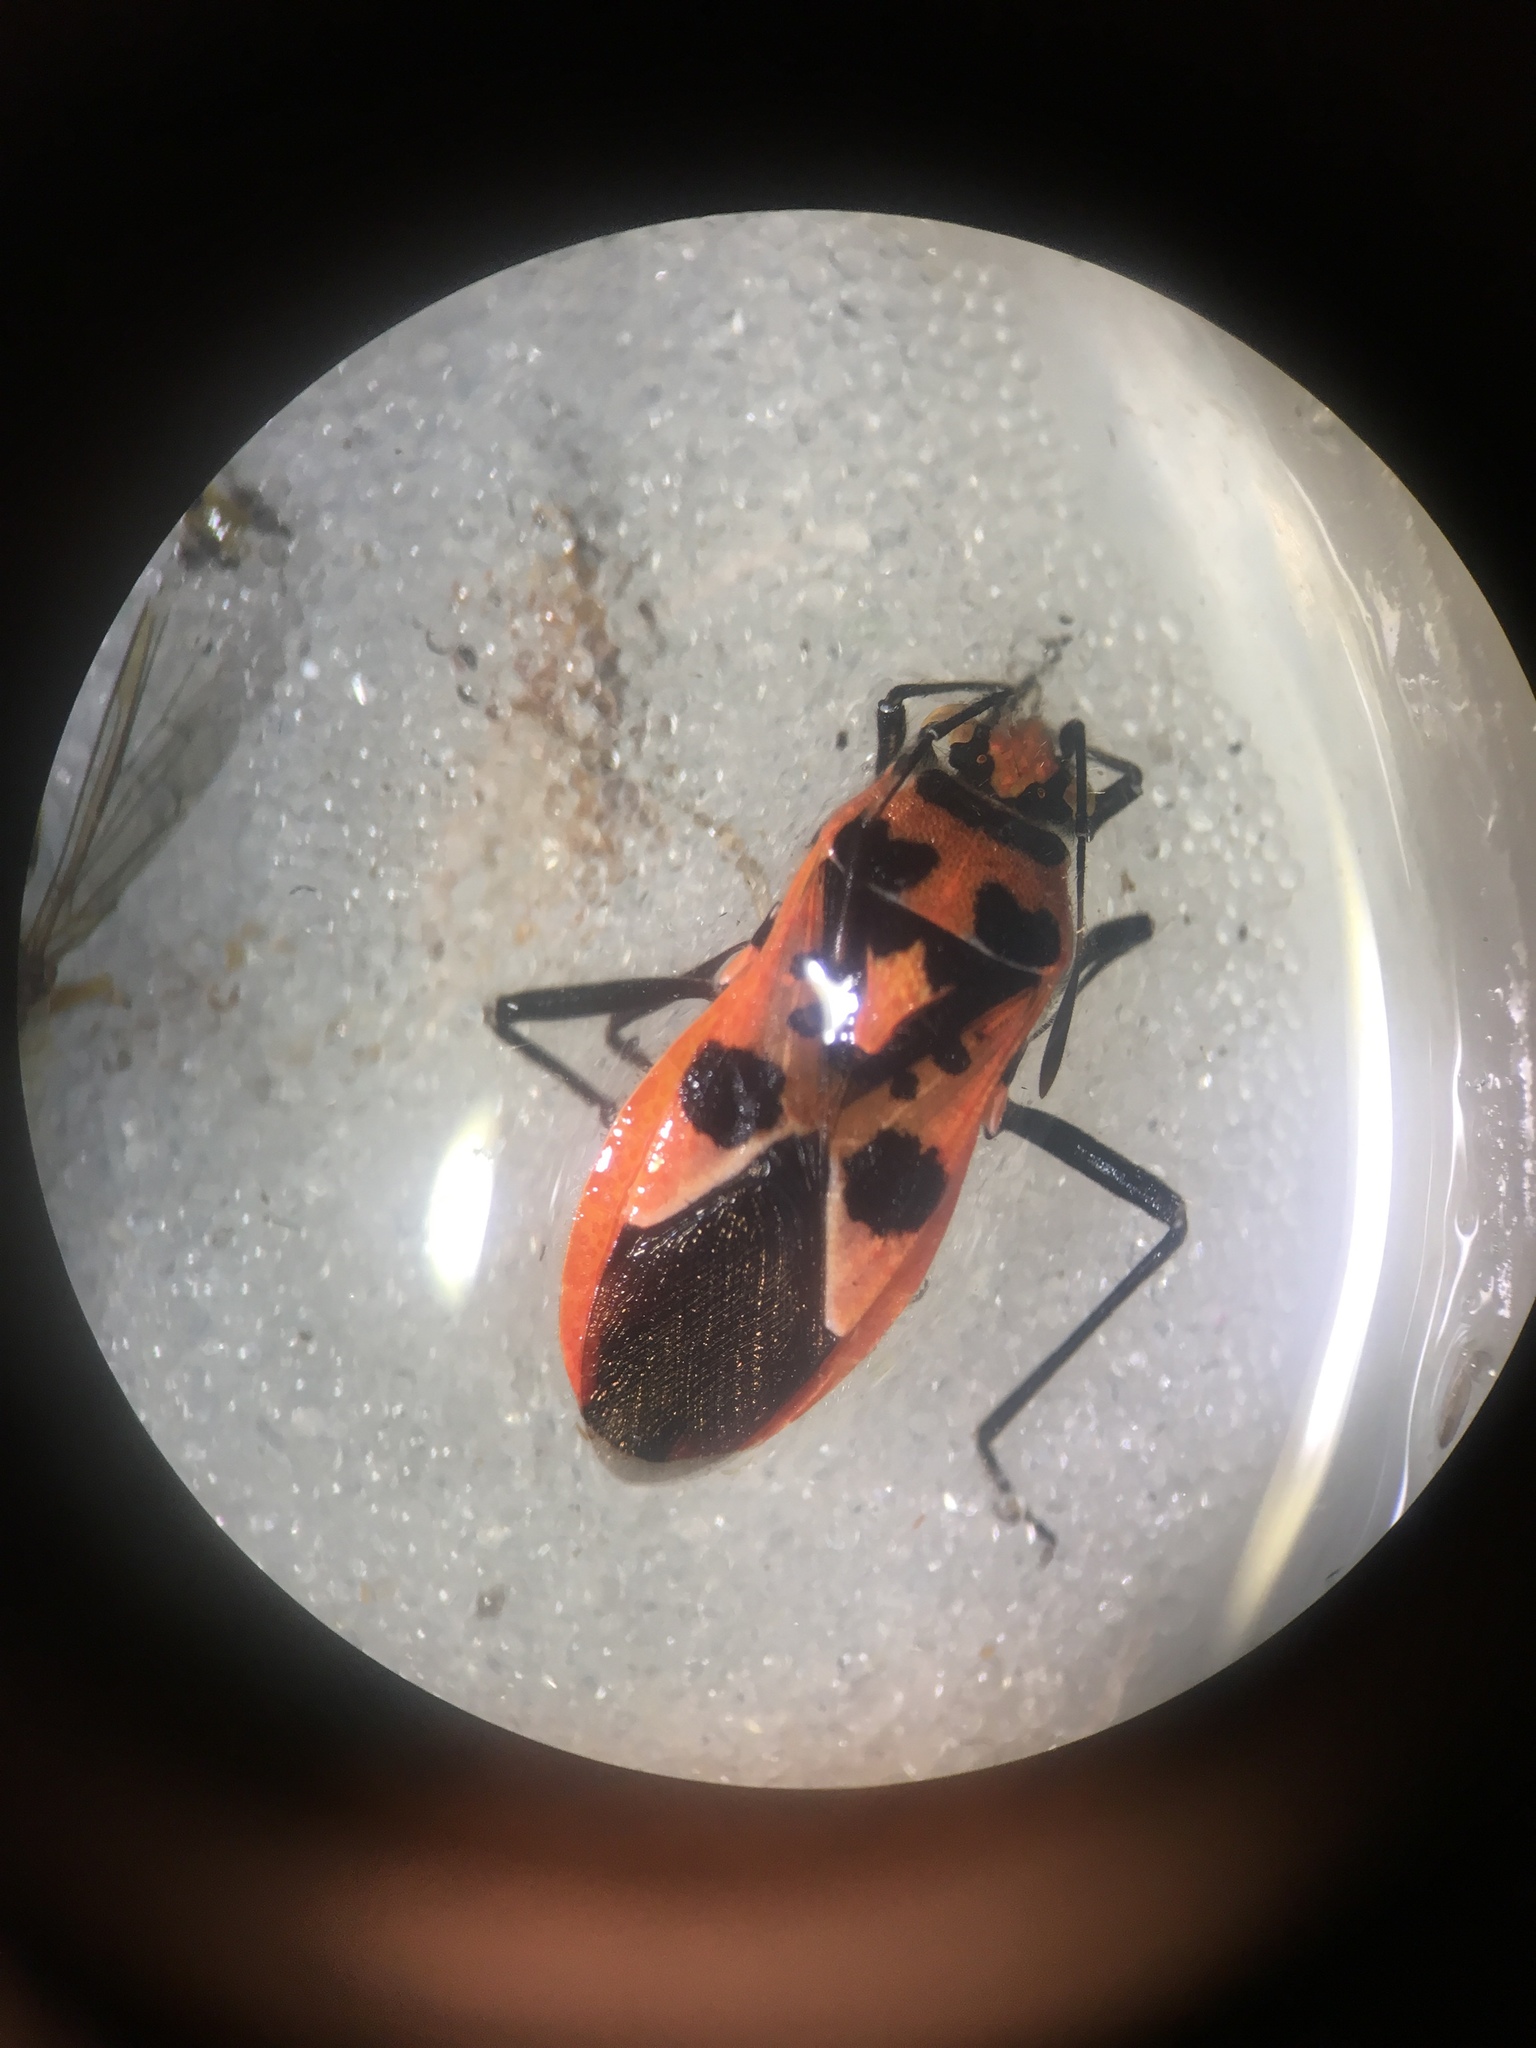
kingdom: Animalia
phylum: Arthropoda
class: Insecta
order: Hemiptera
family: Rhopalidae
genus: Corizus
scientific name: Corizus hyoscyami
